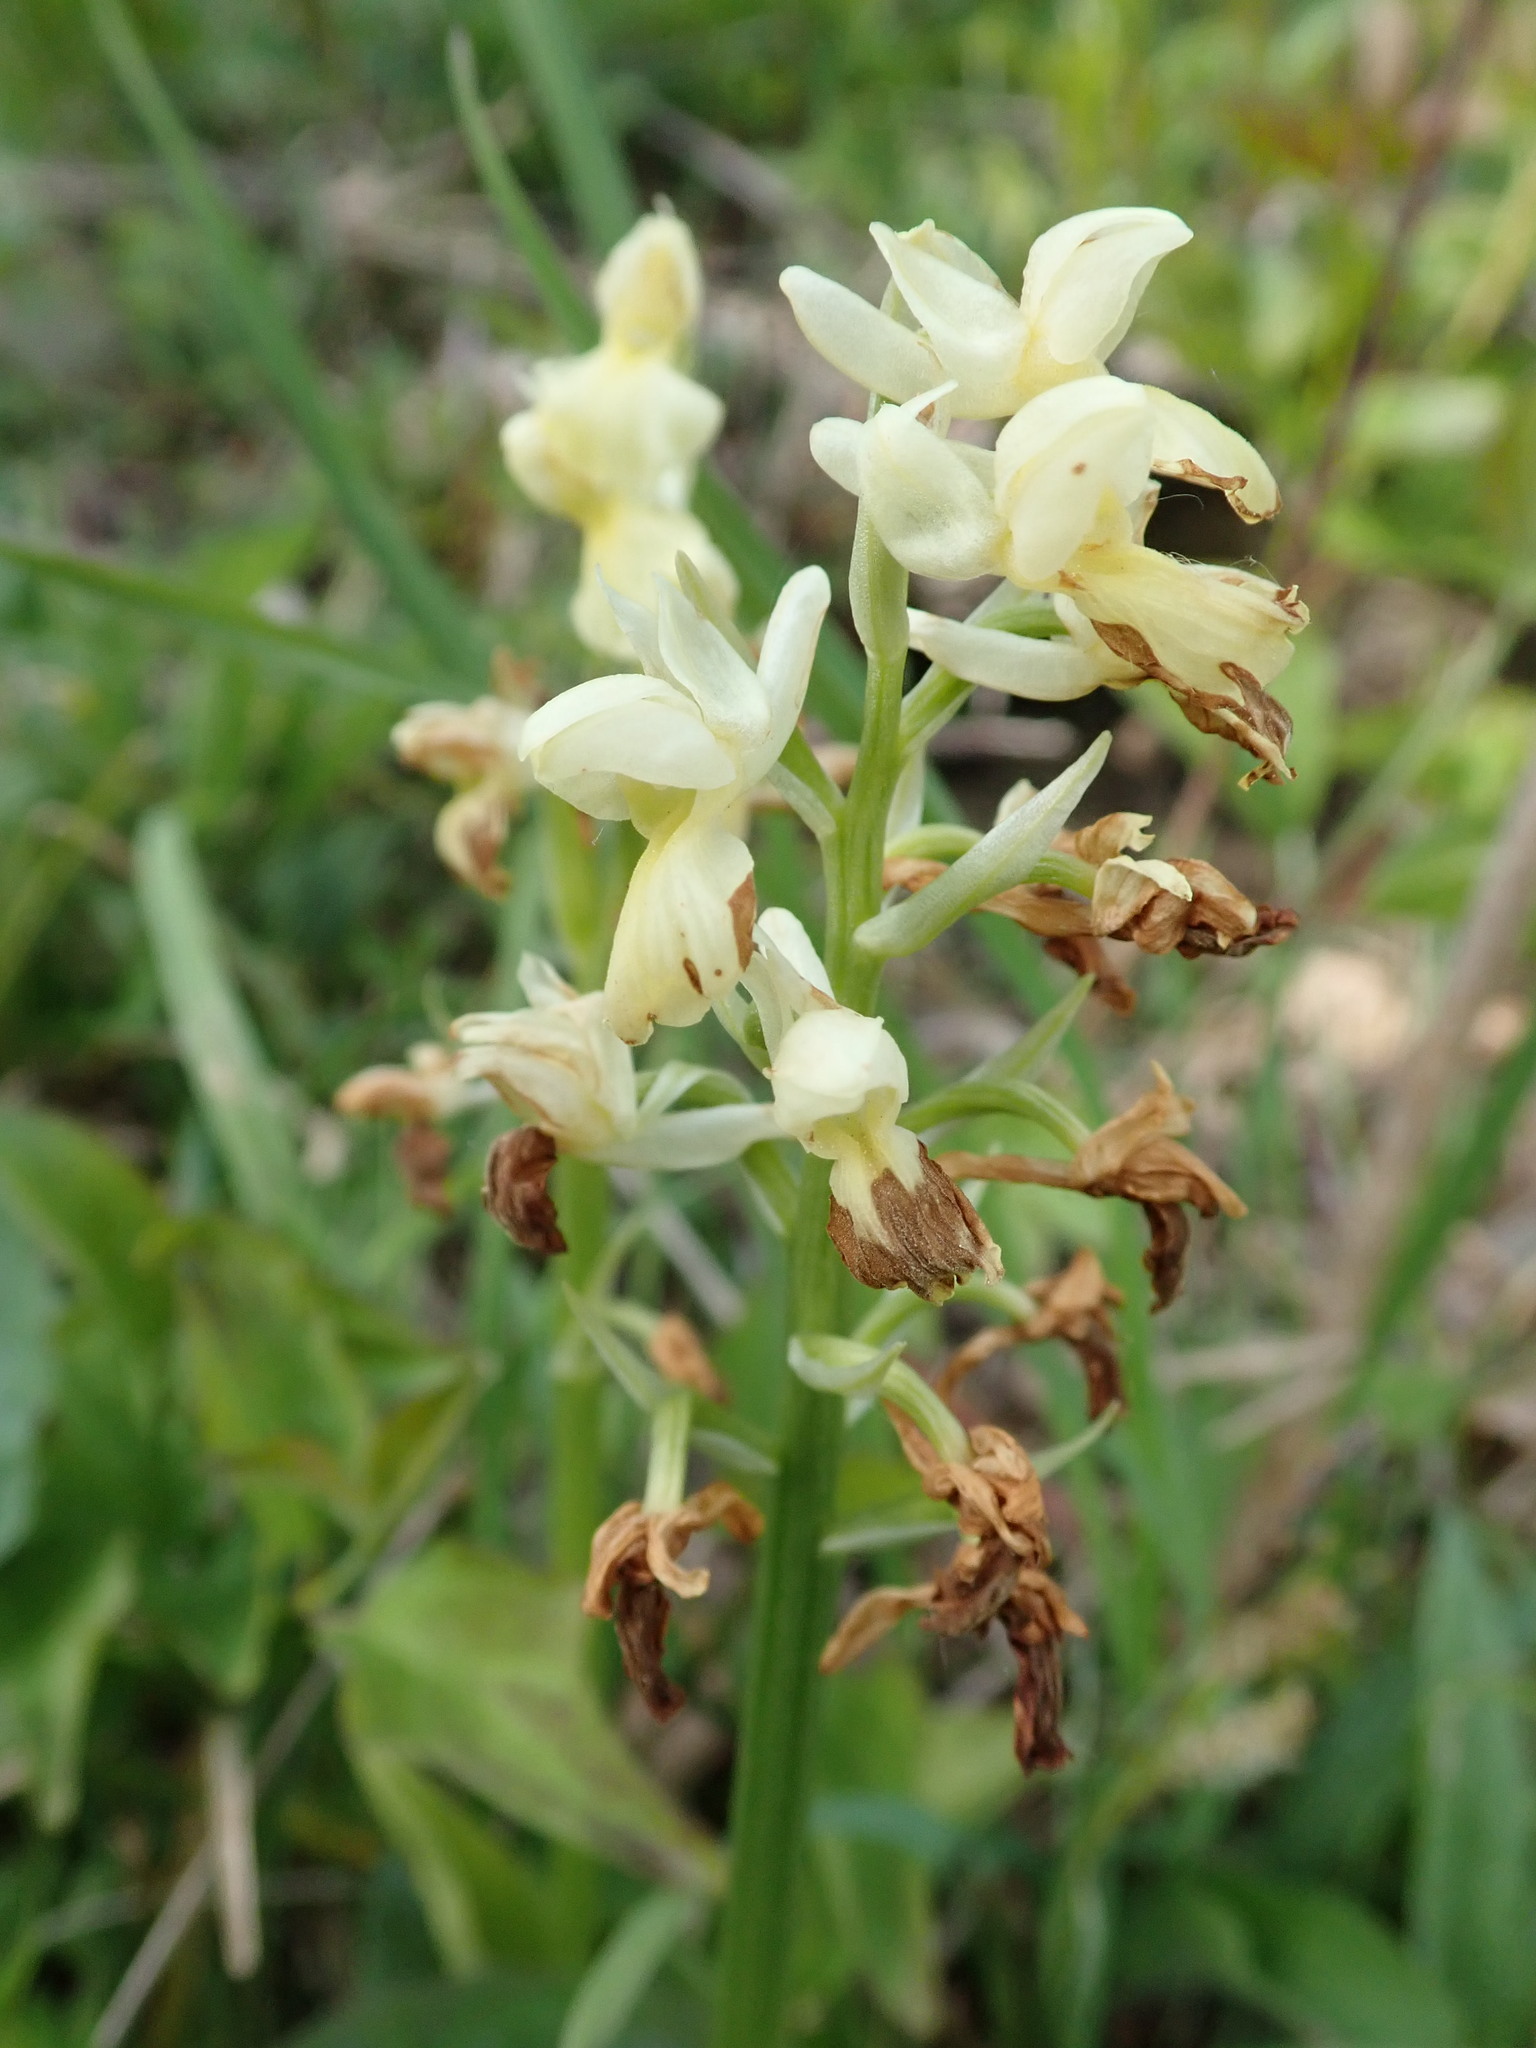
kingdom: Plantae
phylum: Tracheophyta
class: Liliopsida
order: Asparagales
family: Orchidaceae
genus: Orchis
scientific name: Orchis pallens
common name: Pale-flowered orchid
